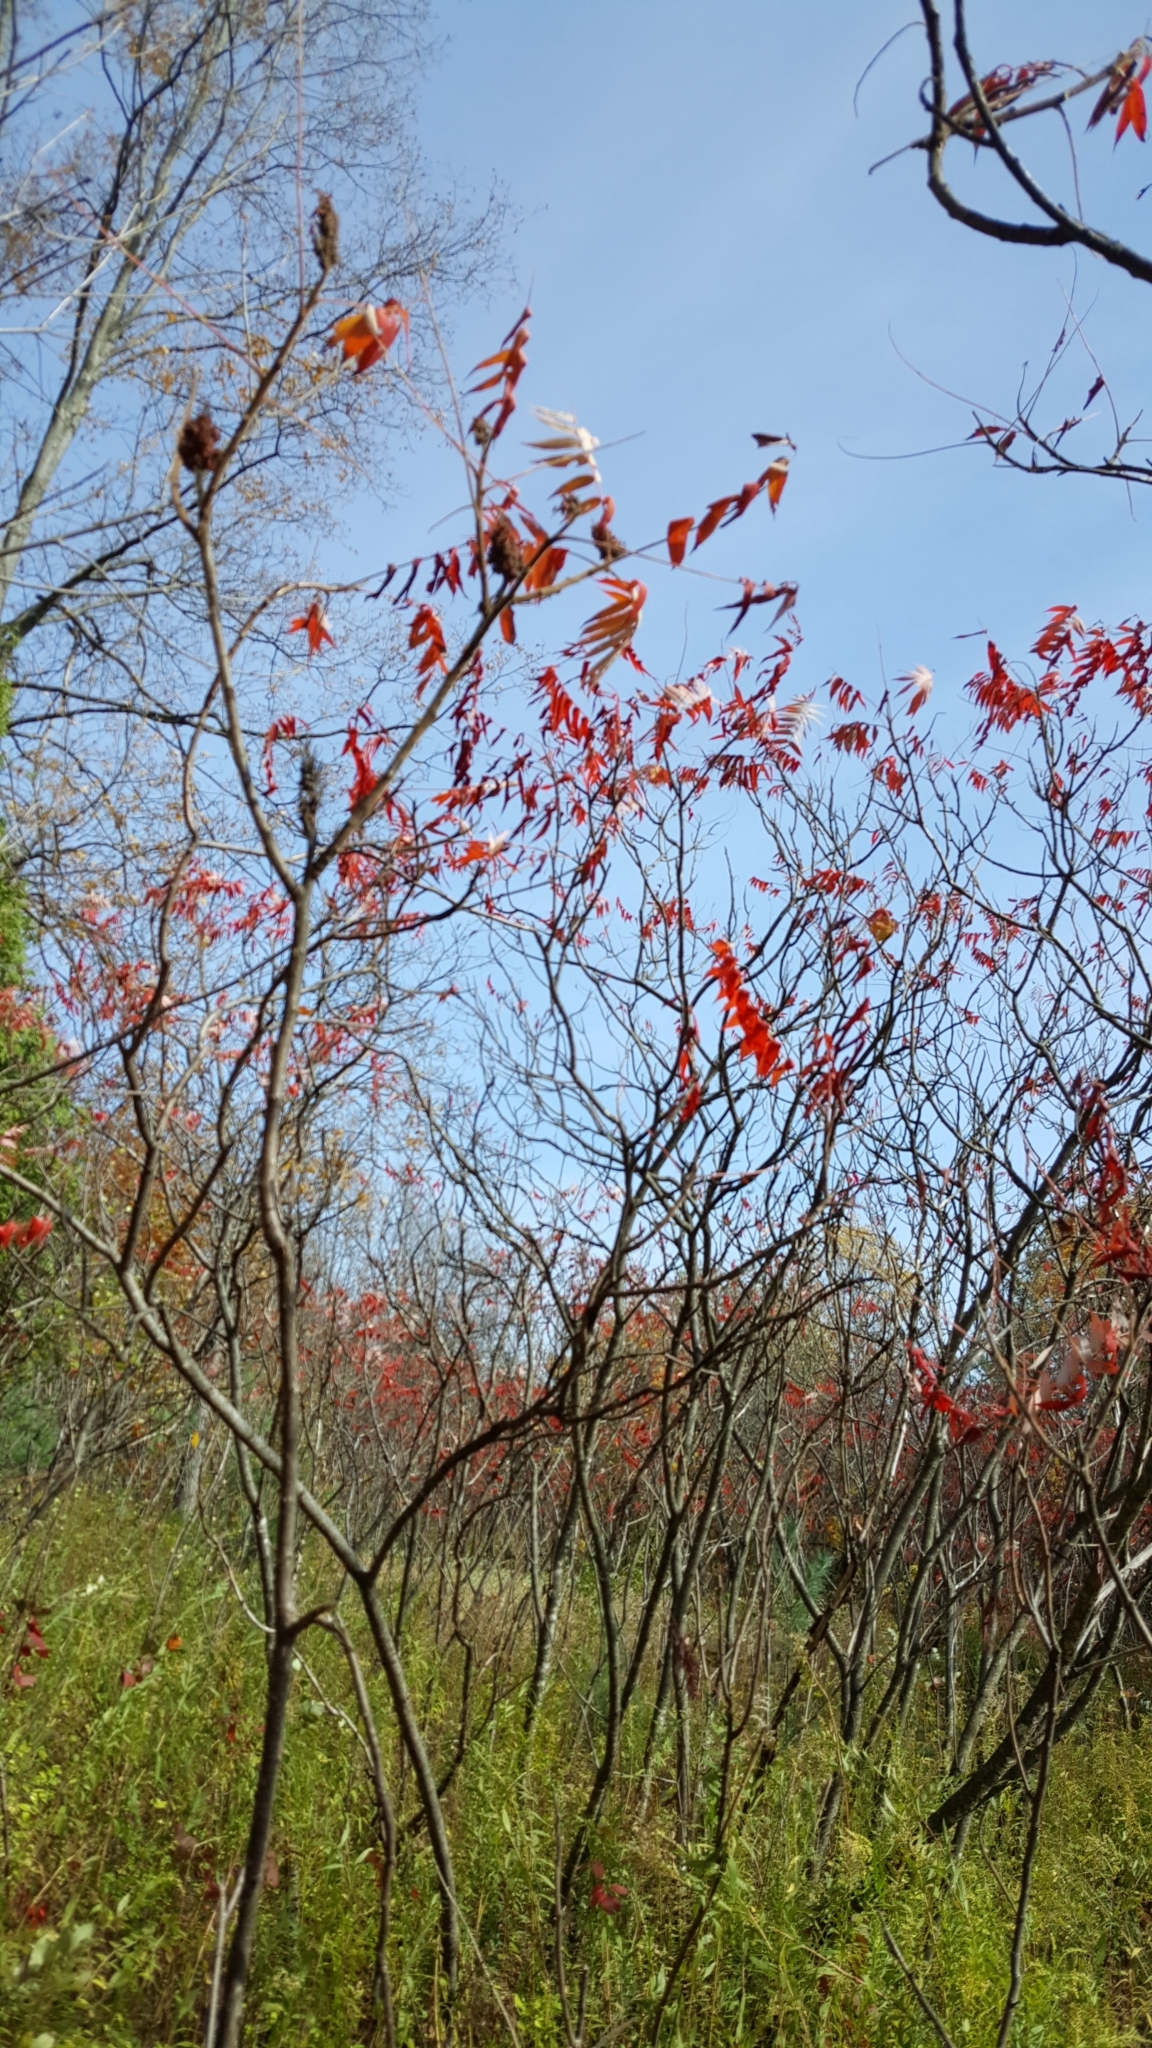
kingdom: Plantae
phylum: Tracheophyta
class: Magnoliopsida
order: Sapindales
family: Anacardiaceae
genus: Rhus
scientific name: Rhus typhina
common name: Staghorn sumac
